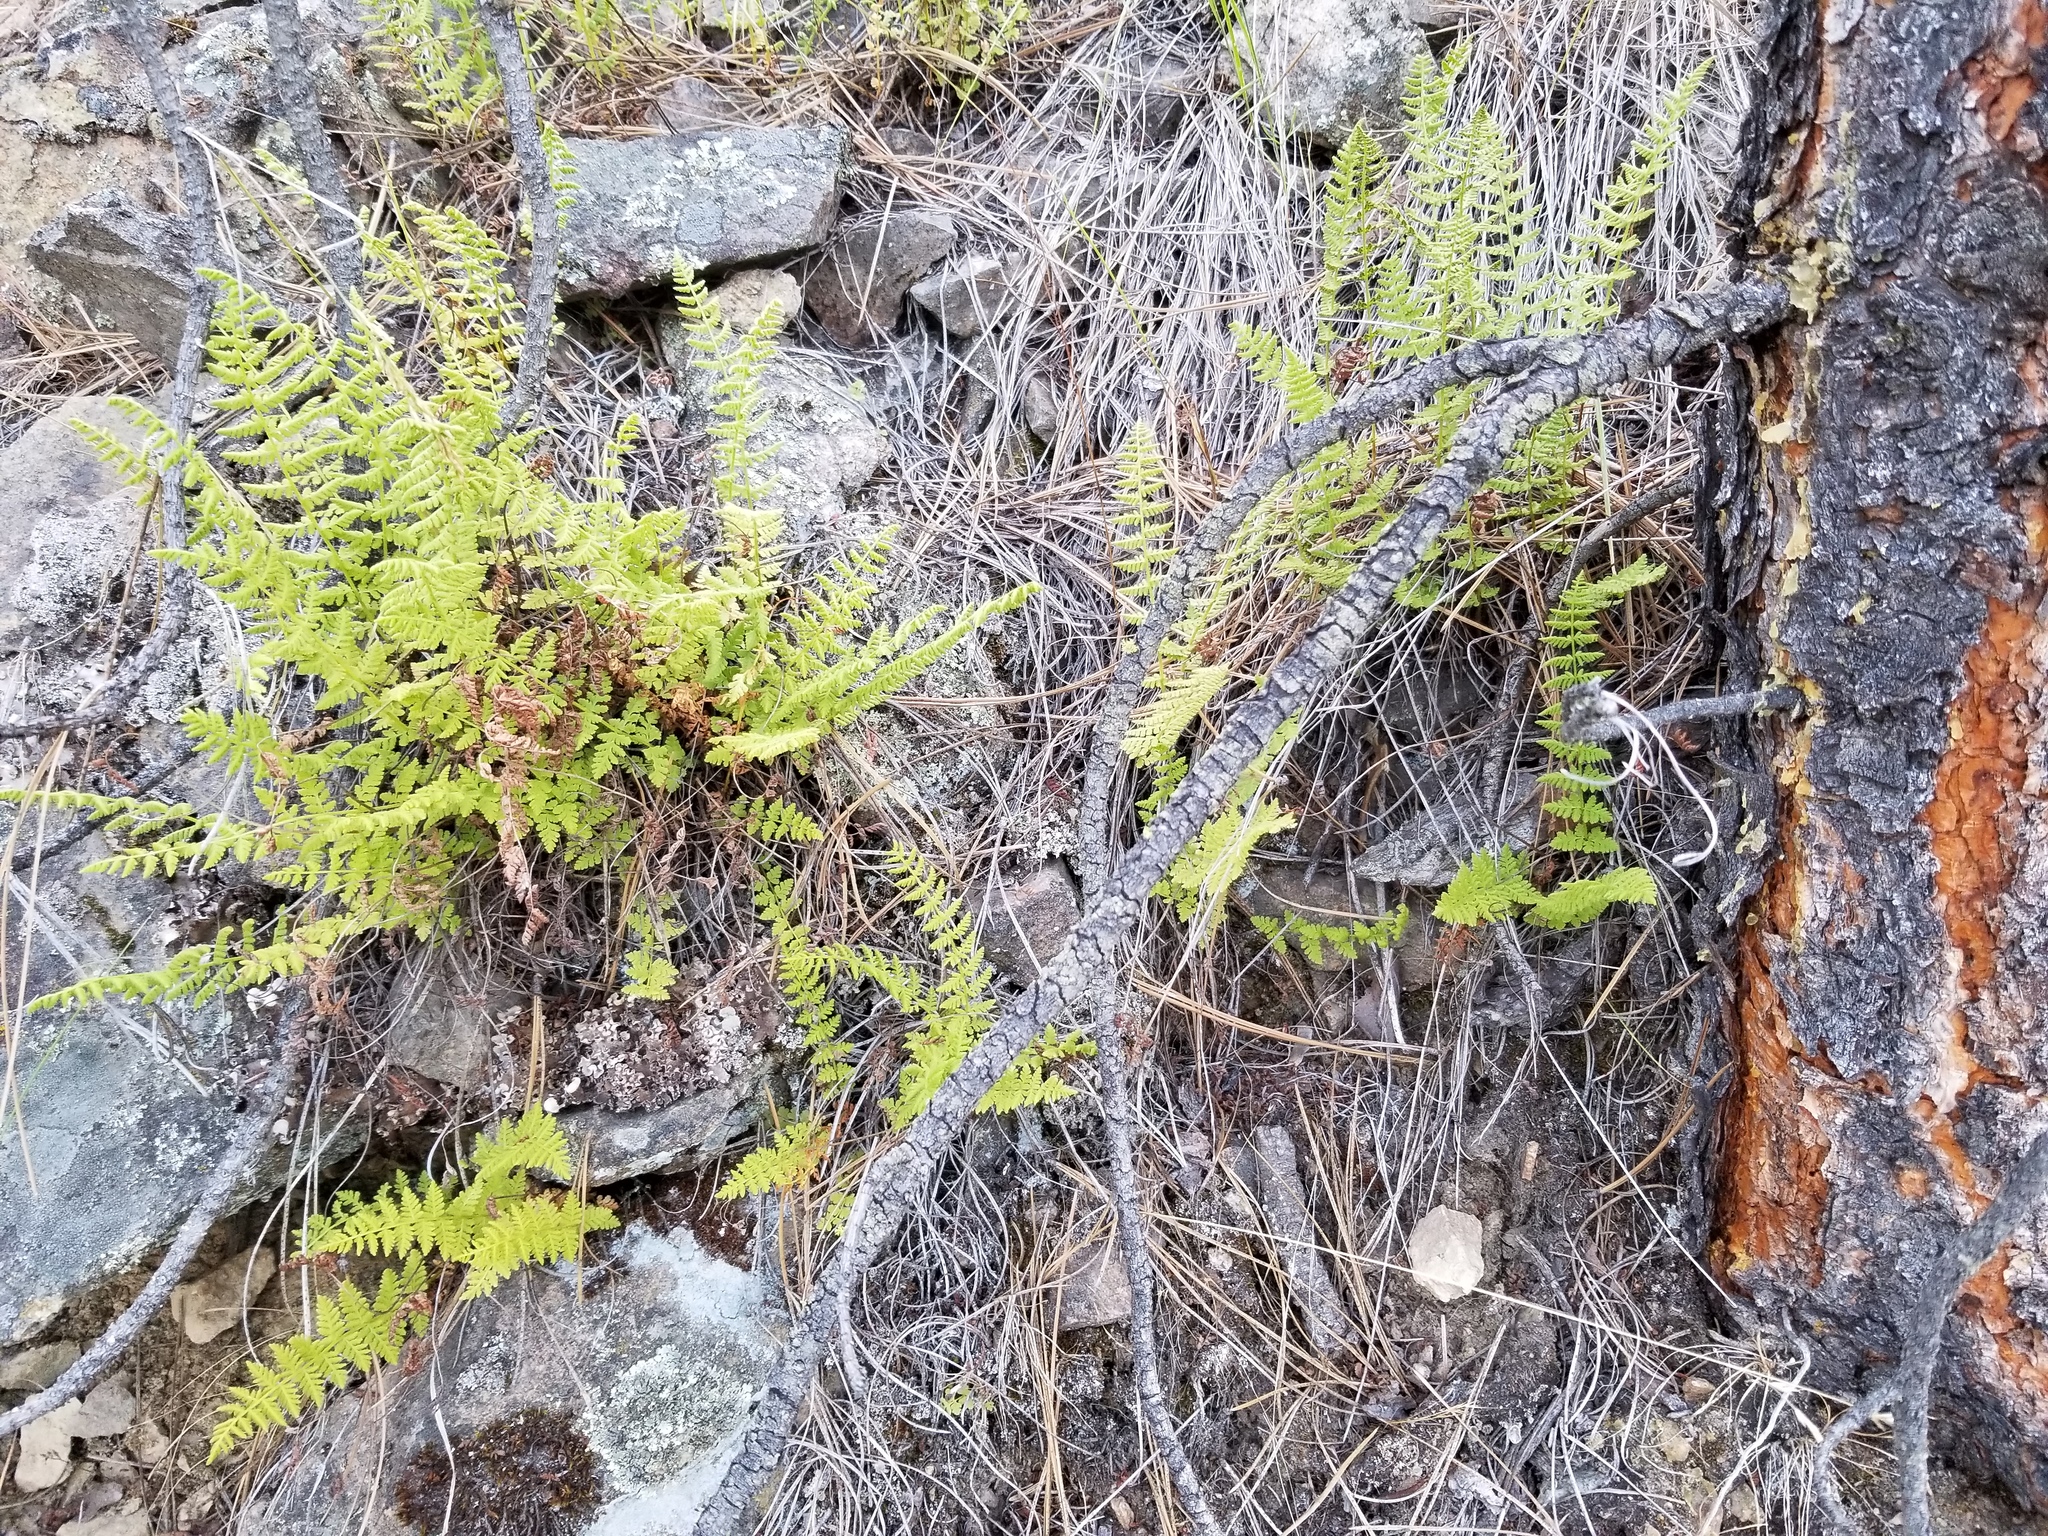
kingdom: Plantae
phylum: Tracheophyta
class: Polypodiopsida
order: Polypodiales
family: Woodsiaceae
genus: Physematium
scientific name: Physematium scopulinum
